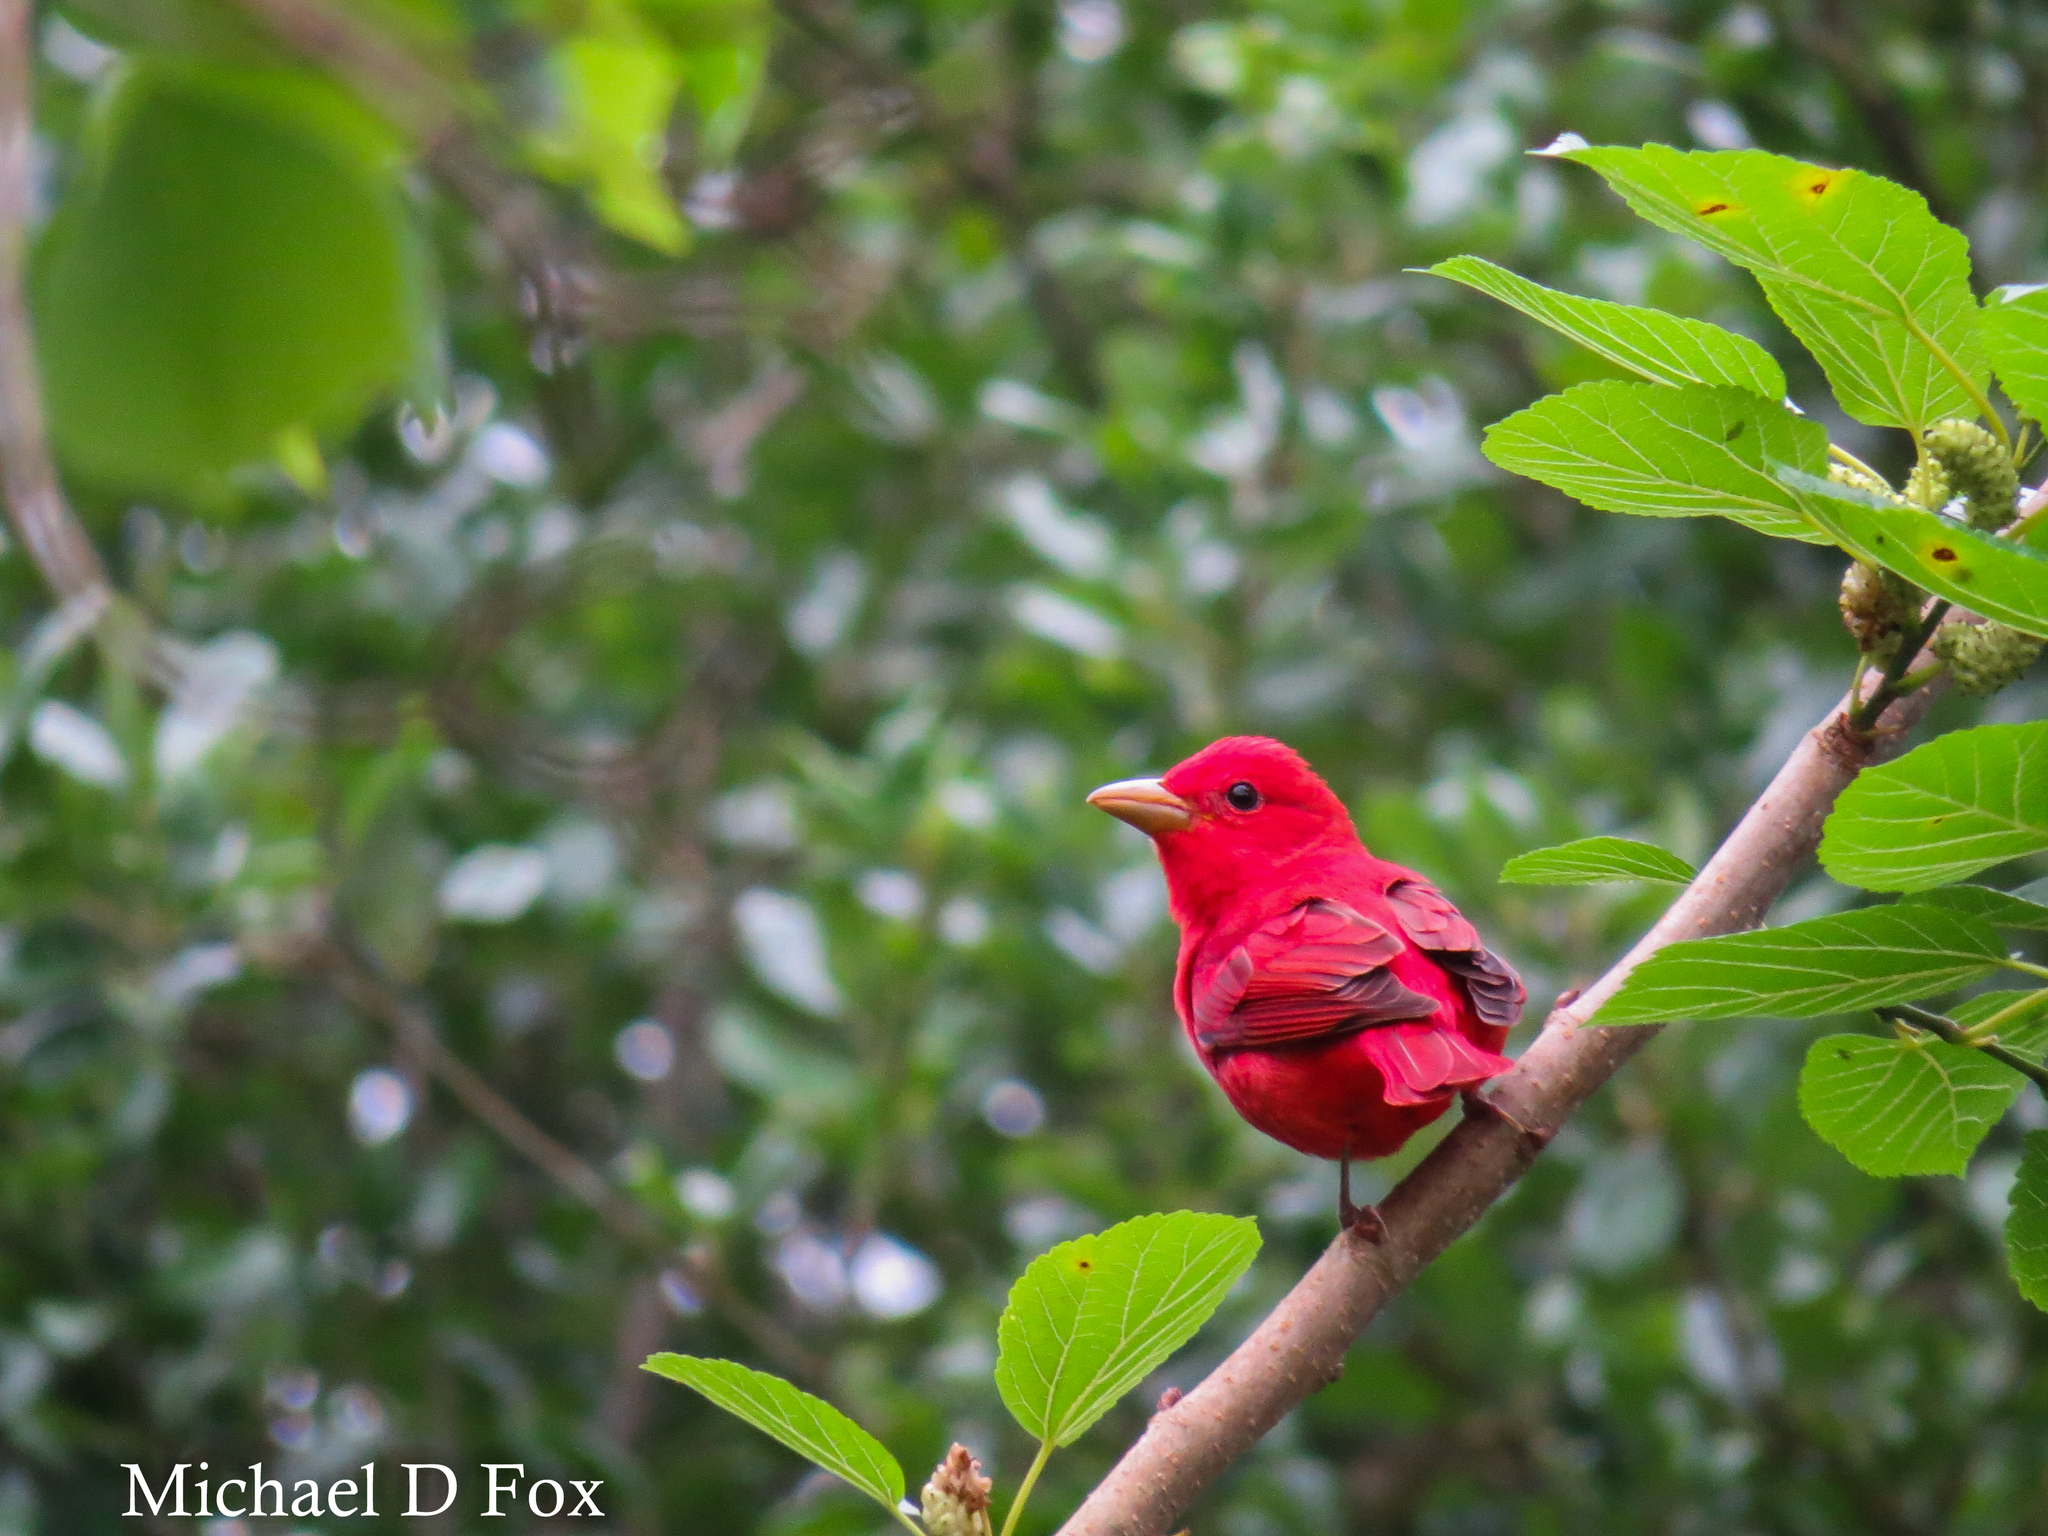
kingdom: Animalia
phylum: Chordata
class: Aves
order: Passeriformes
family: Cardinalidae
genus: Piranga
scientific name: Piranga rubra
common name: Summer tanager
